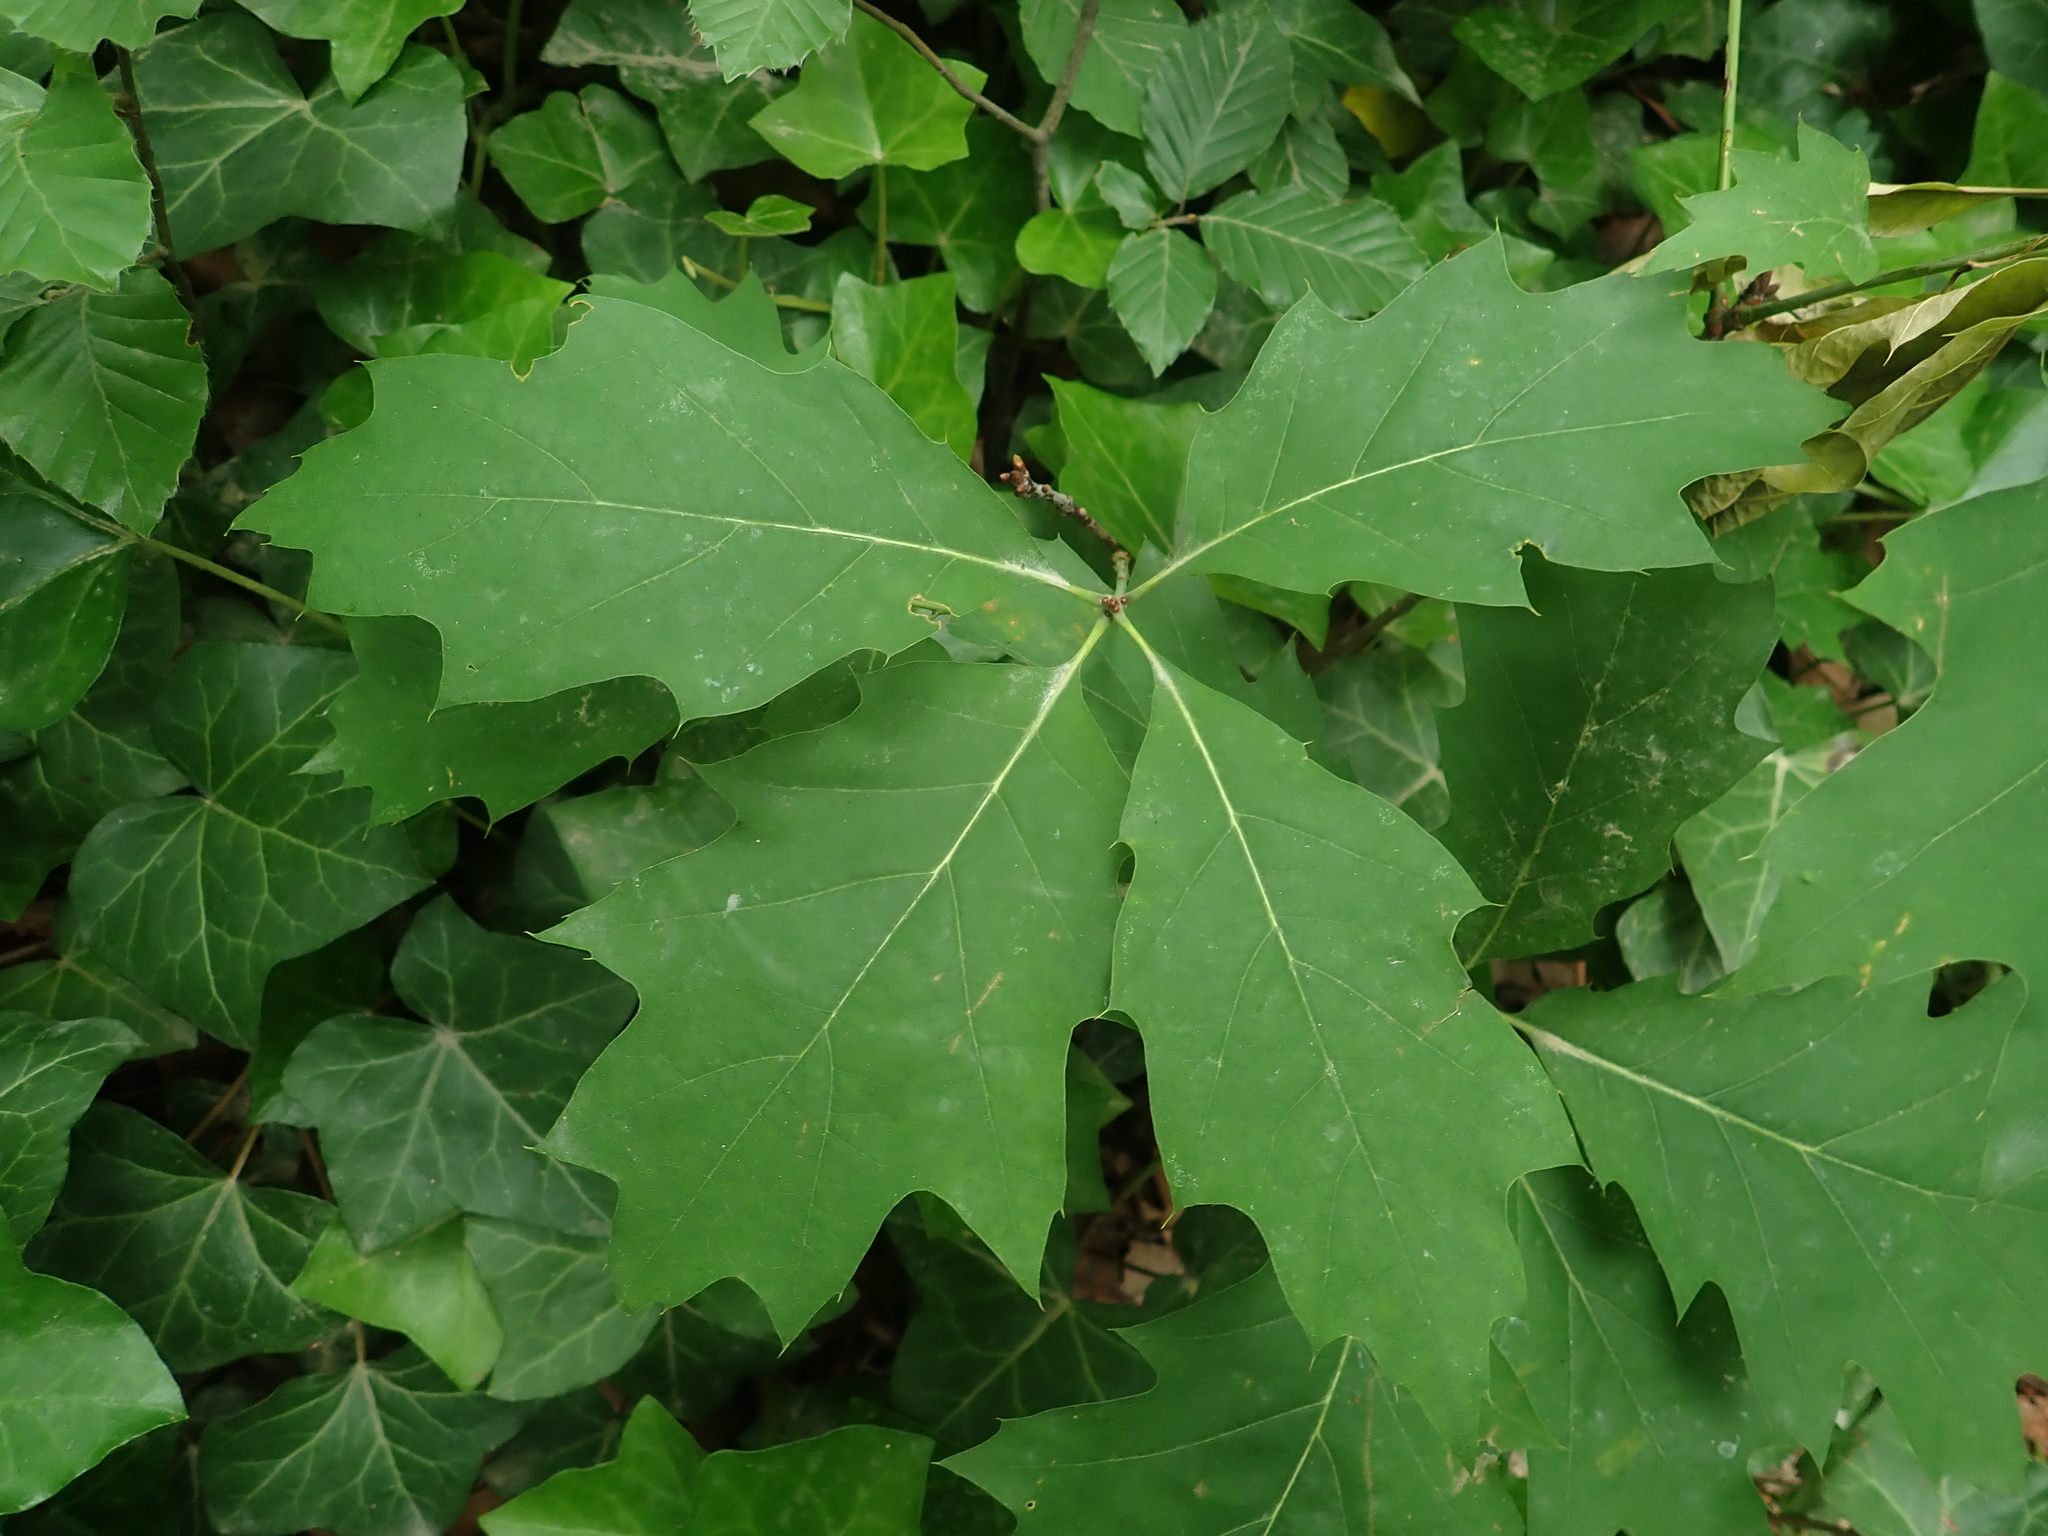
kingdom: Plantae
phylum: Tracheophyta
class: Magnoliopsida
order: Fagales
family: Fagaceae
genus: Quercus
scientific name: Quercus rubra
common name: Red oak
